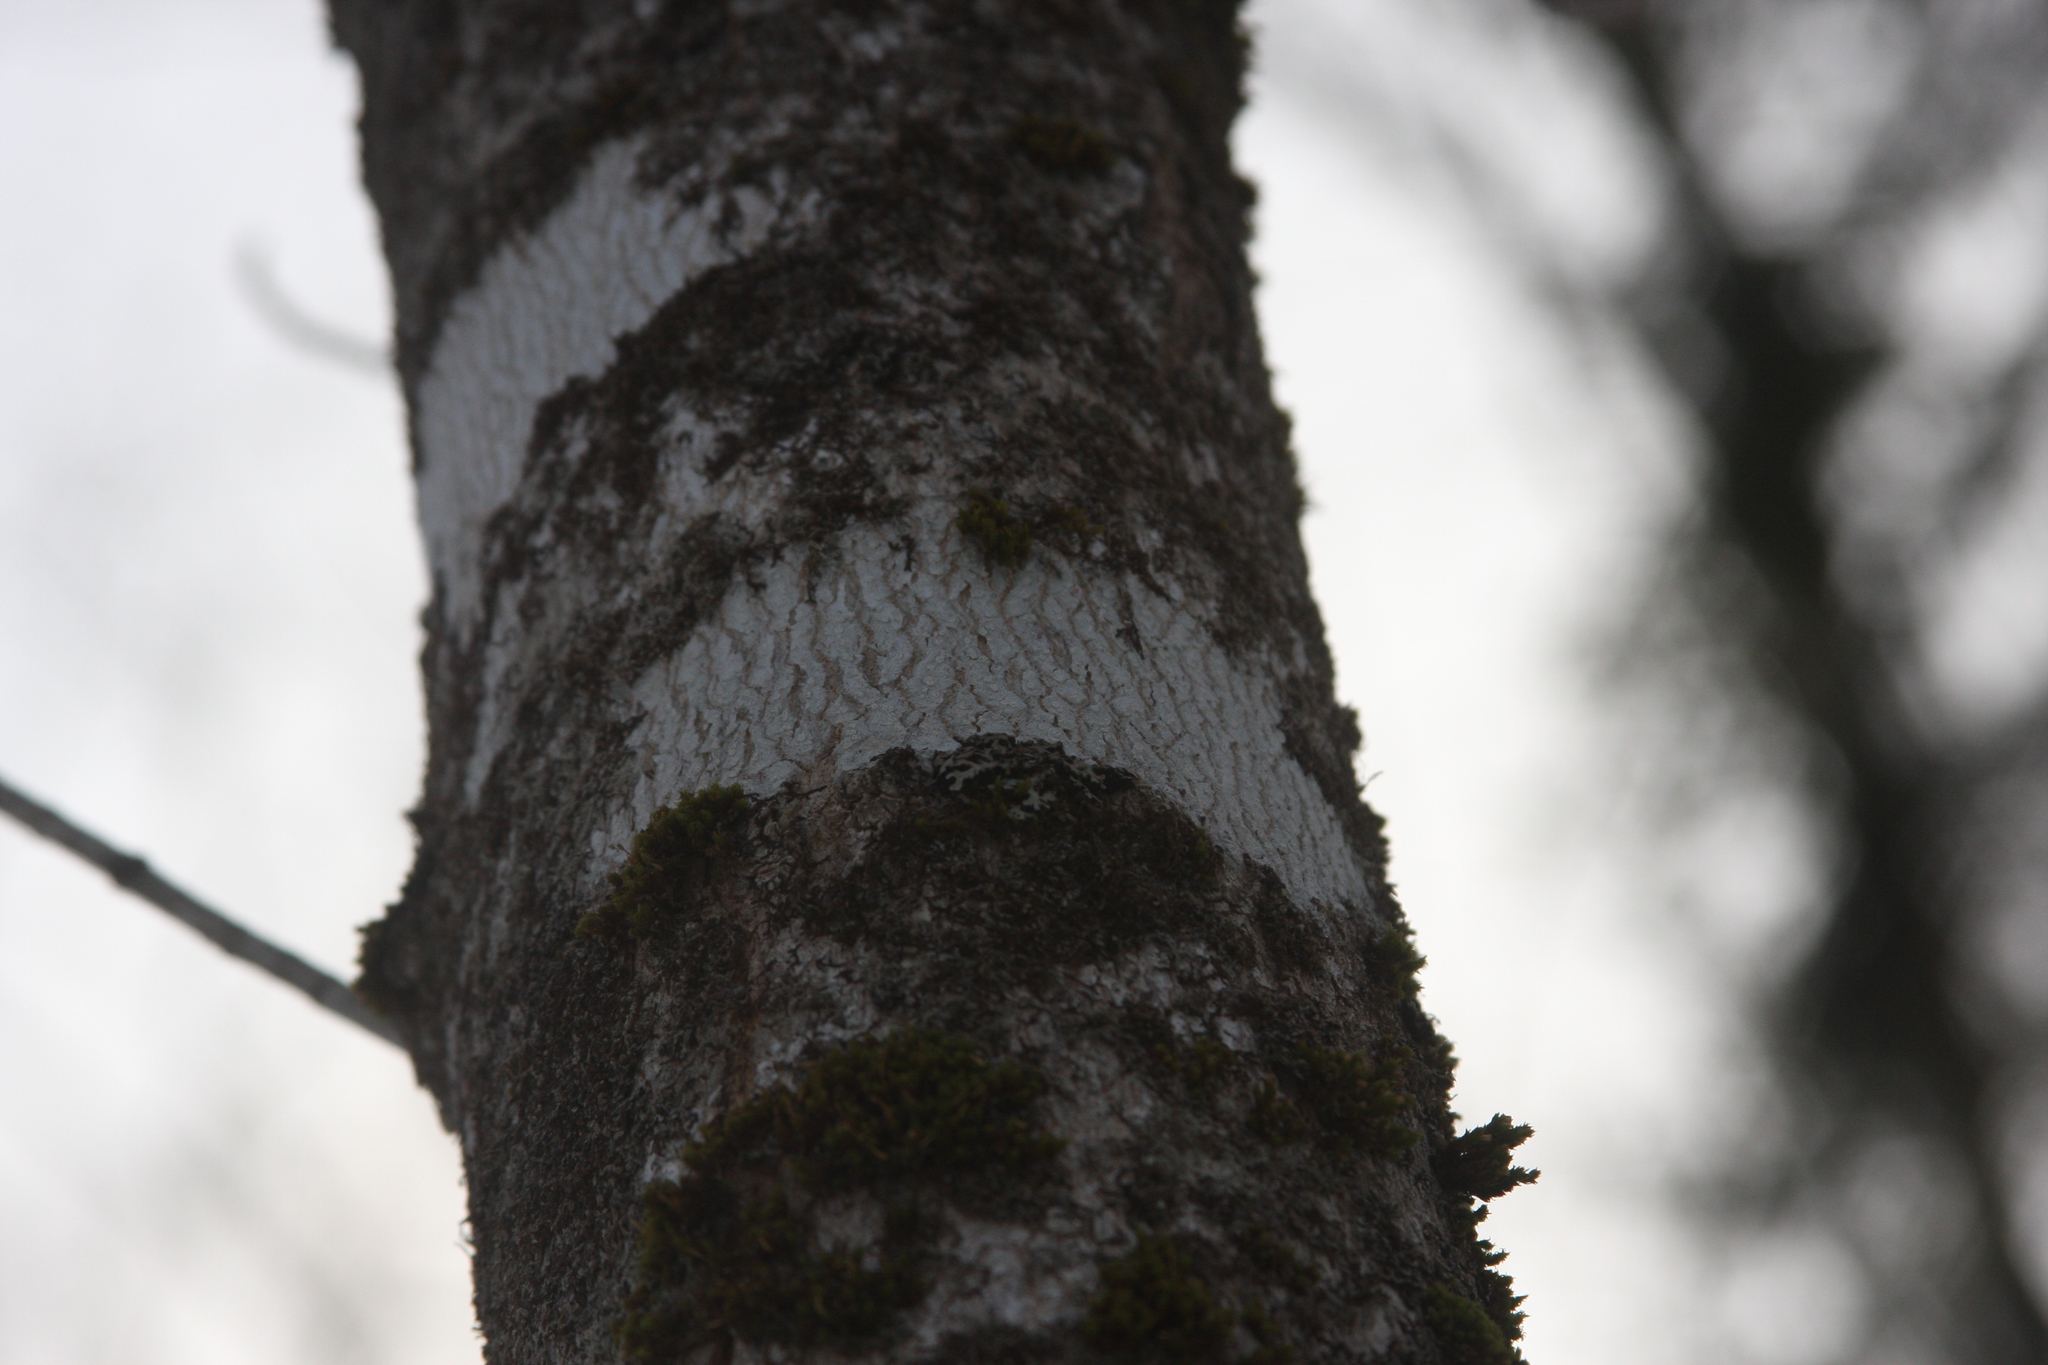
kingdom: Plantae
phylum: Bryophyta
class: Bryopsida
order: Orthotrichales
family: Orthotrichaceae
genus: Ulota
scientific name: Ulota crispa
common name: Crisped pincushion moss
